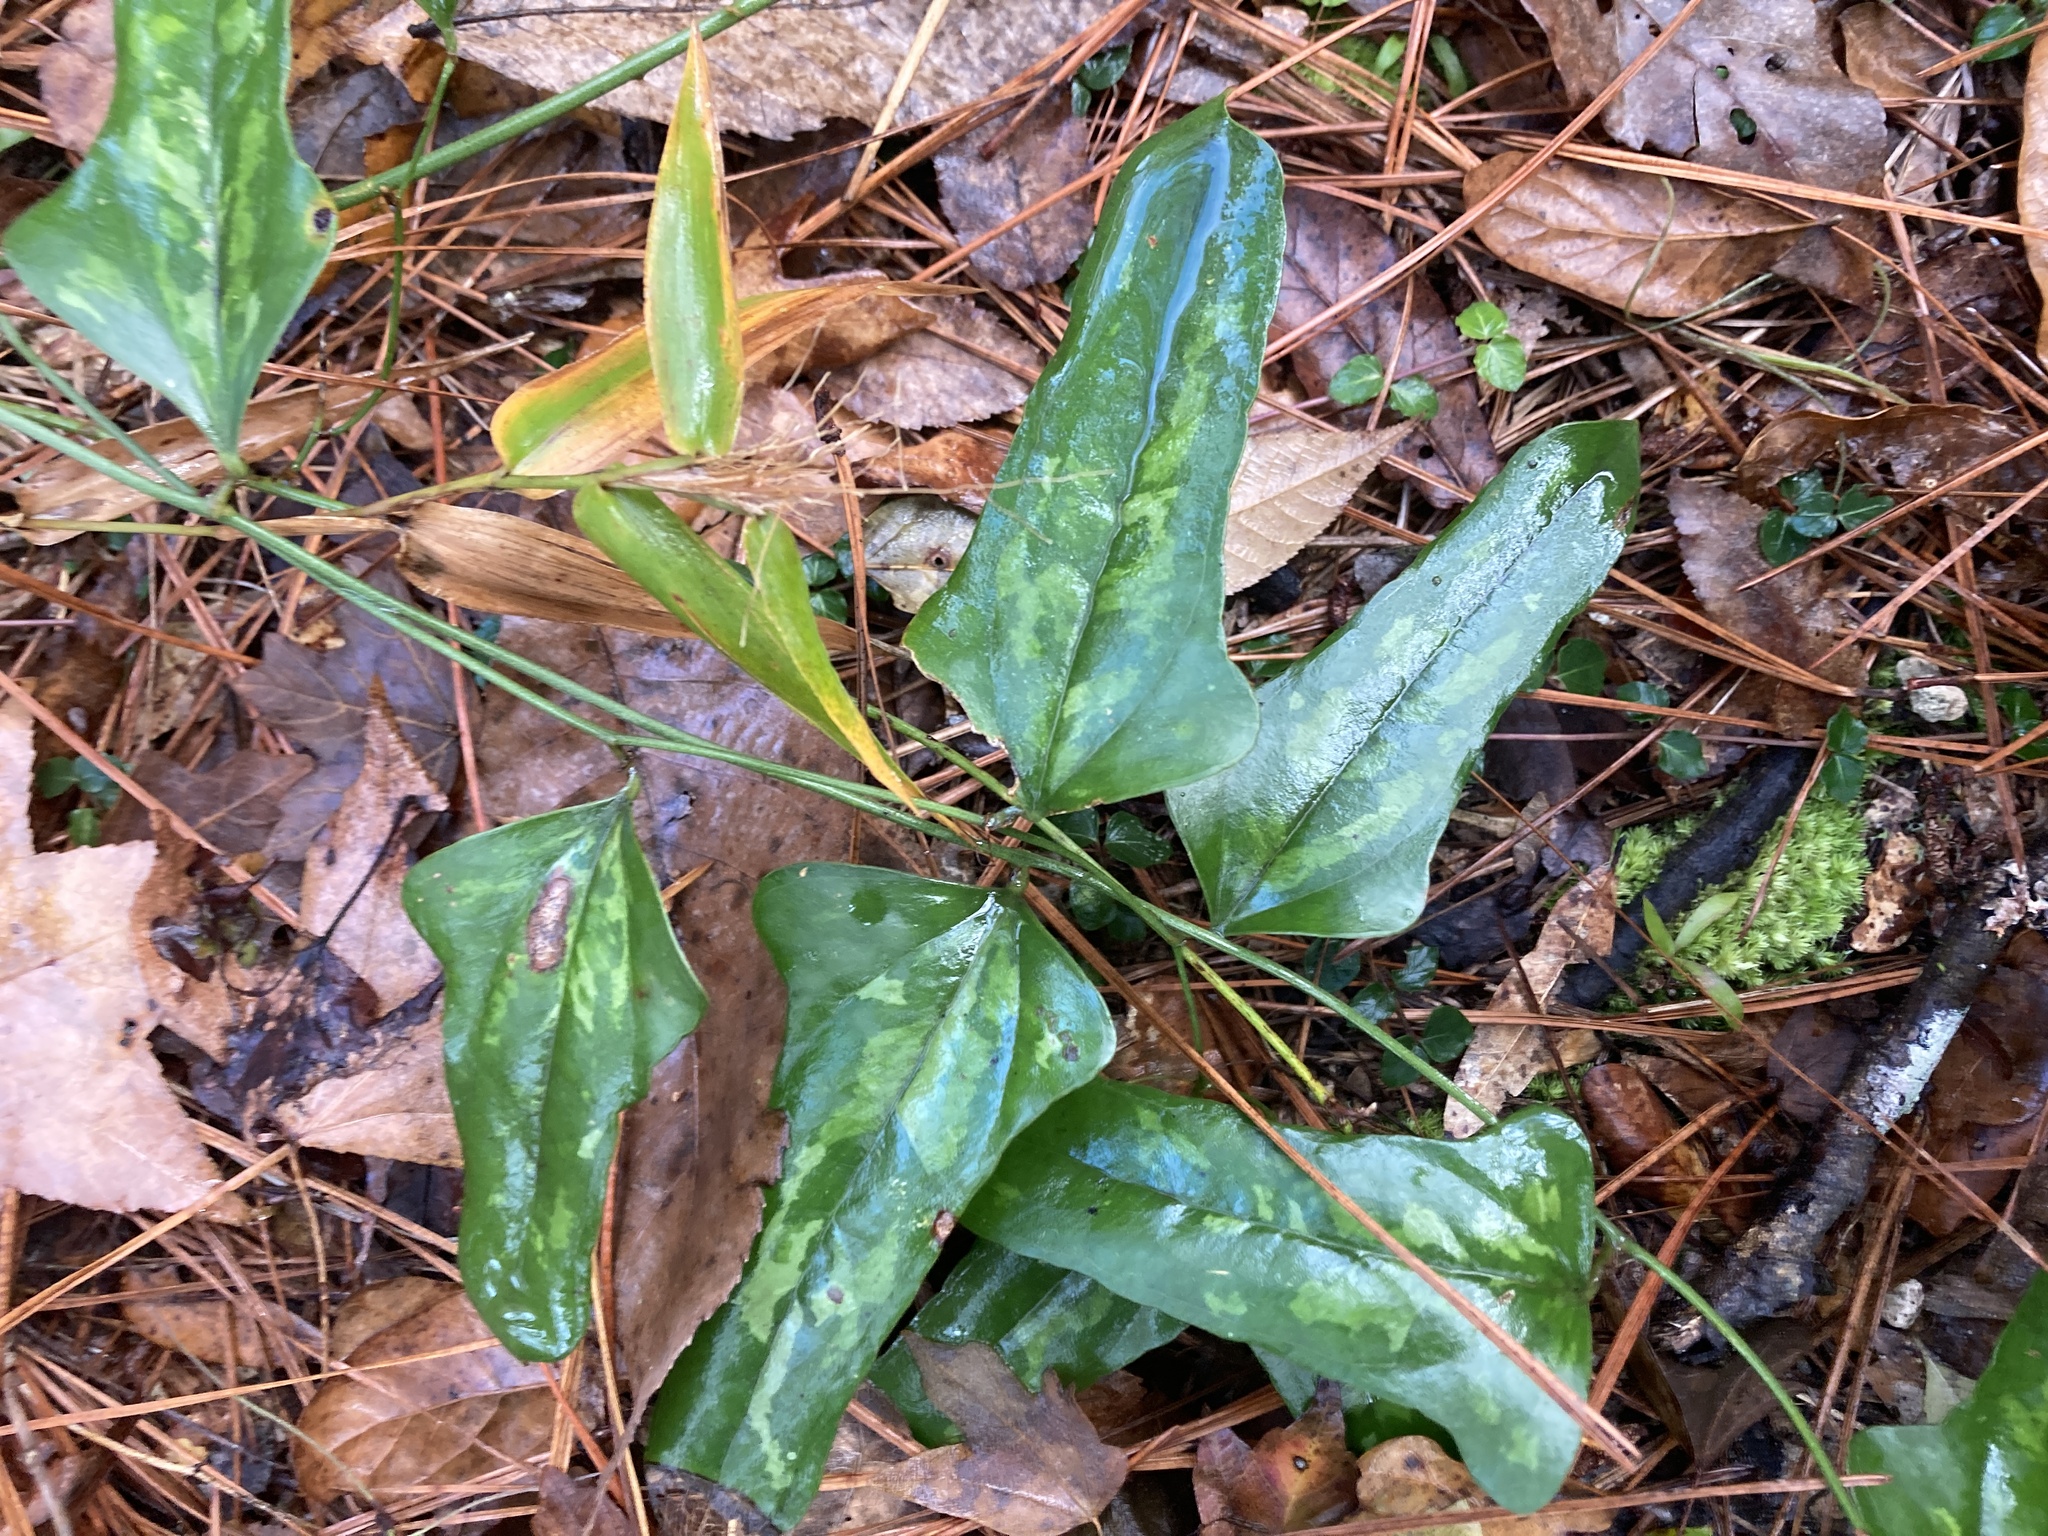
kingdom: Plantae
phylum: Tracheophyta
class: Liliopsida
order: Liliales
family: Smilacaceae
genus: Smilax
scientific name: Smilax auriculata
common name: Wild bamboo
